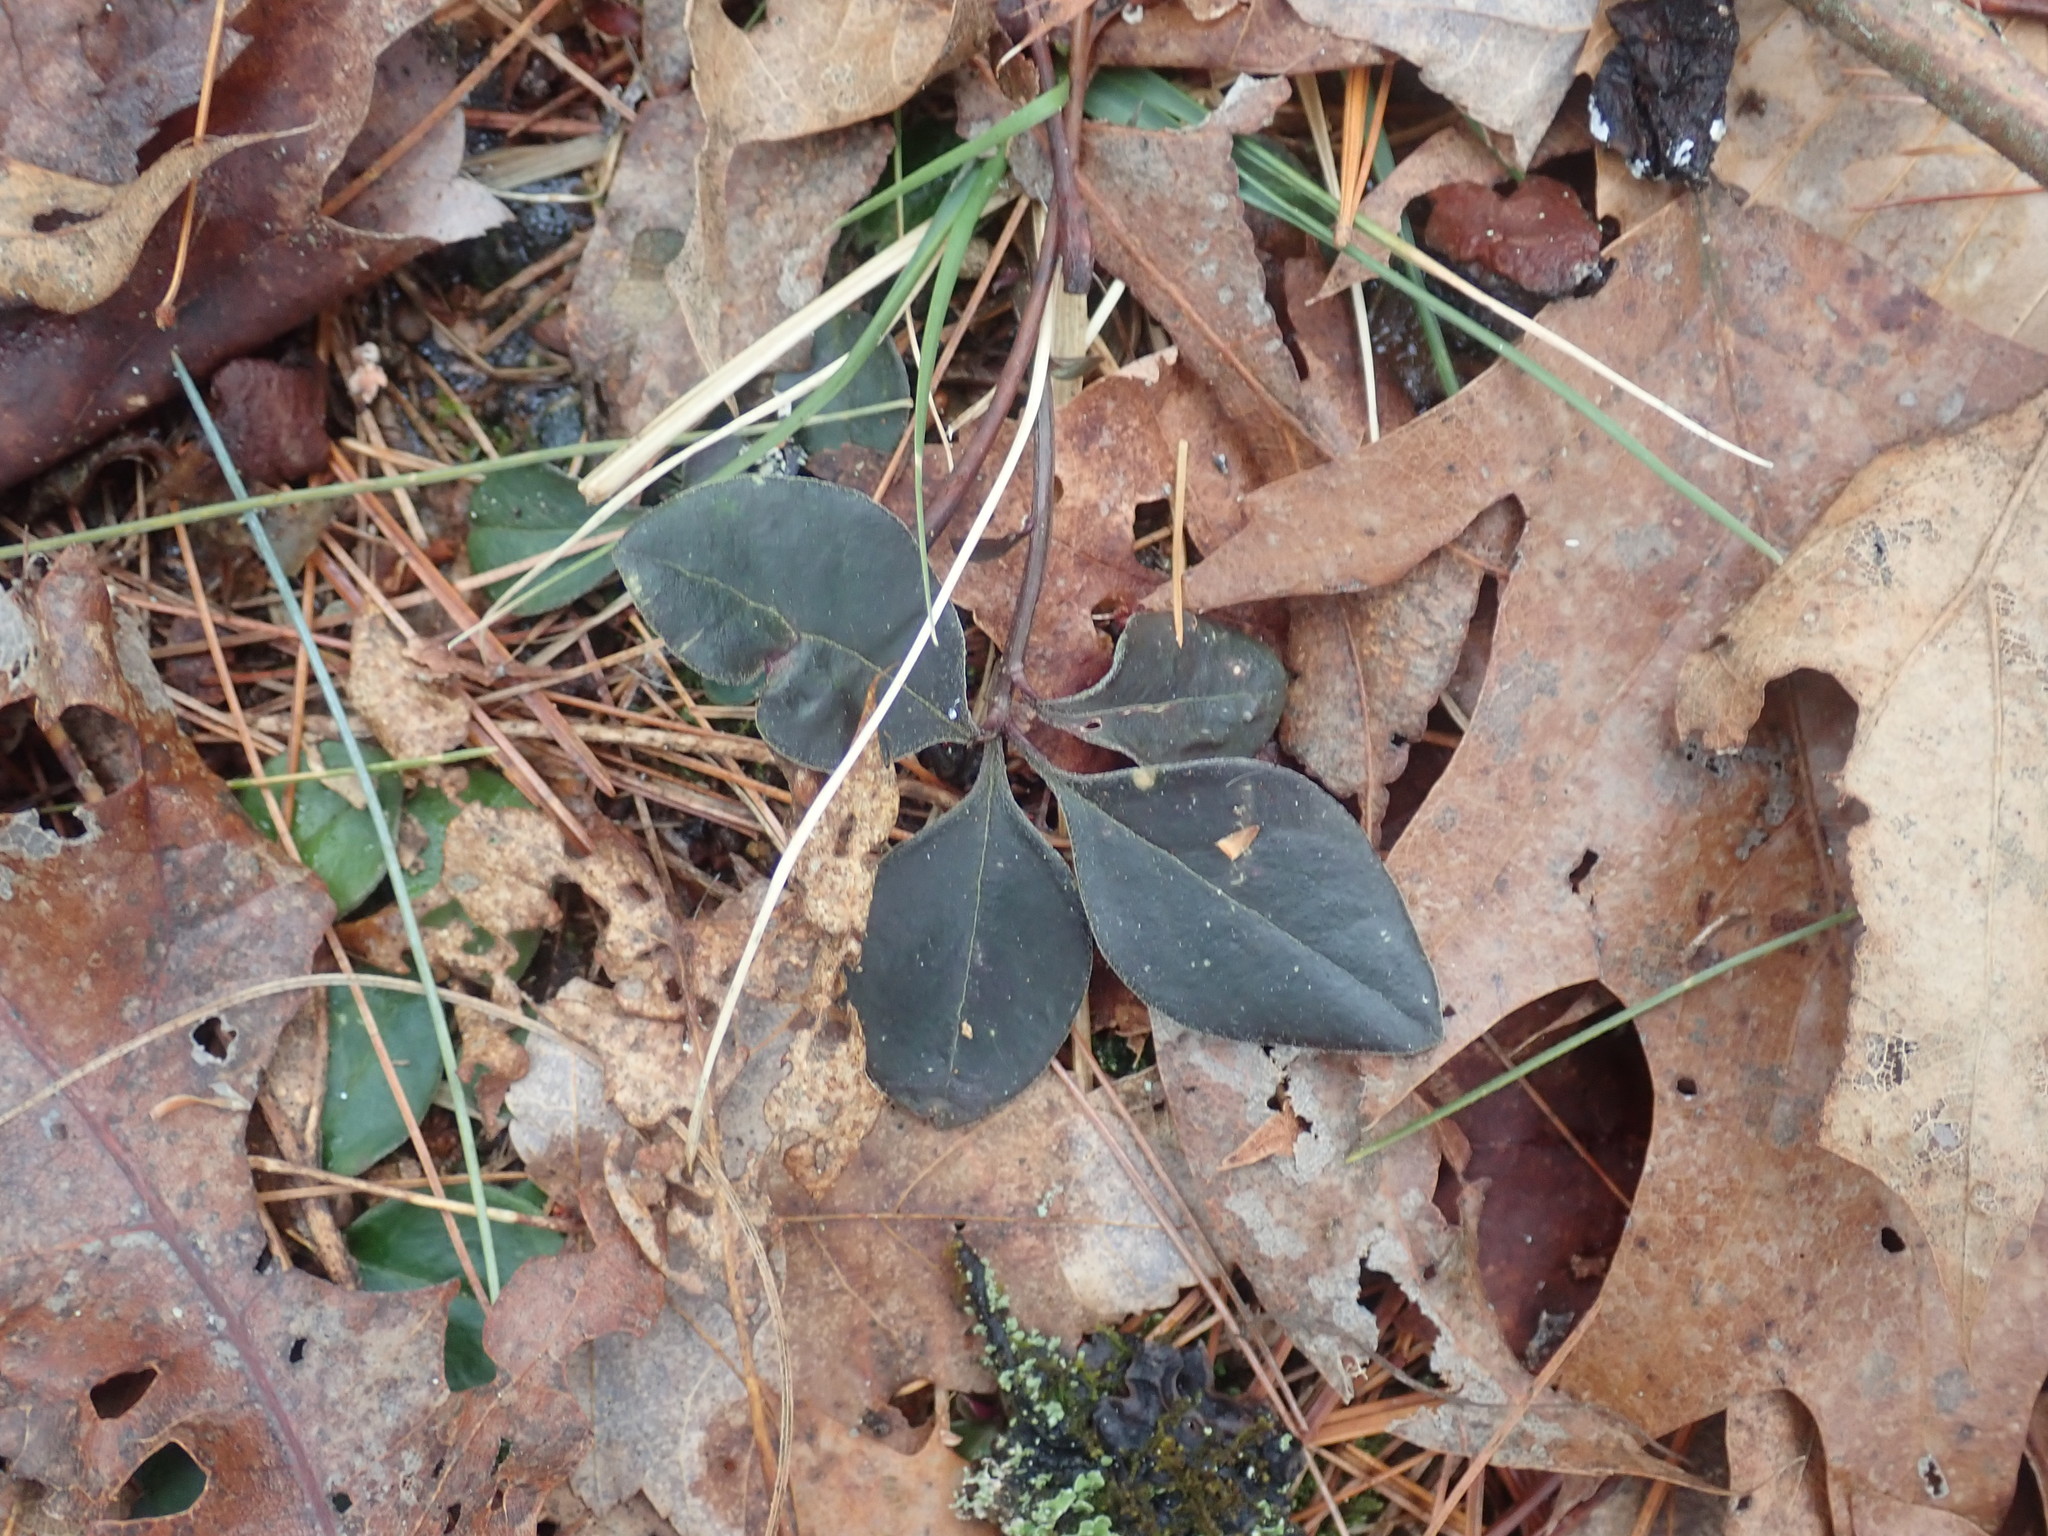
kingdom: Plantae
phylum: Tracheophyta
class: Magnoliopsida
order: Fabales
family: Polygalaceae
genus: Polygaloides
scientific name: Polygaloides paucifolia
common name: Bird-on-the-wing
